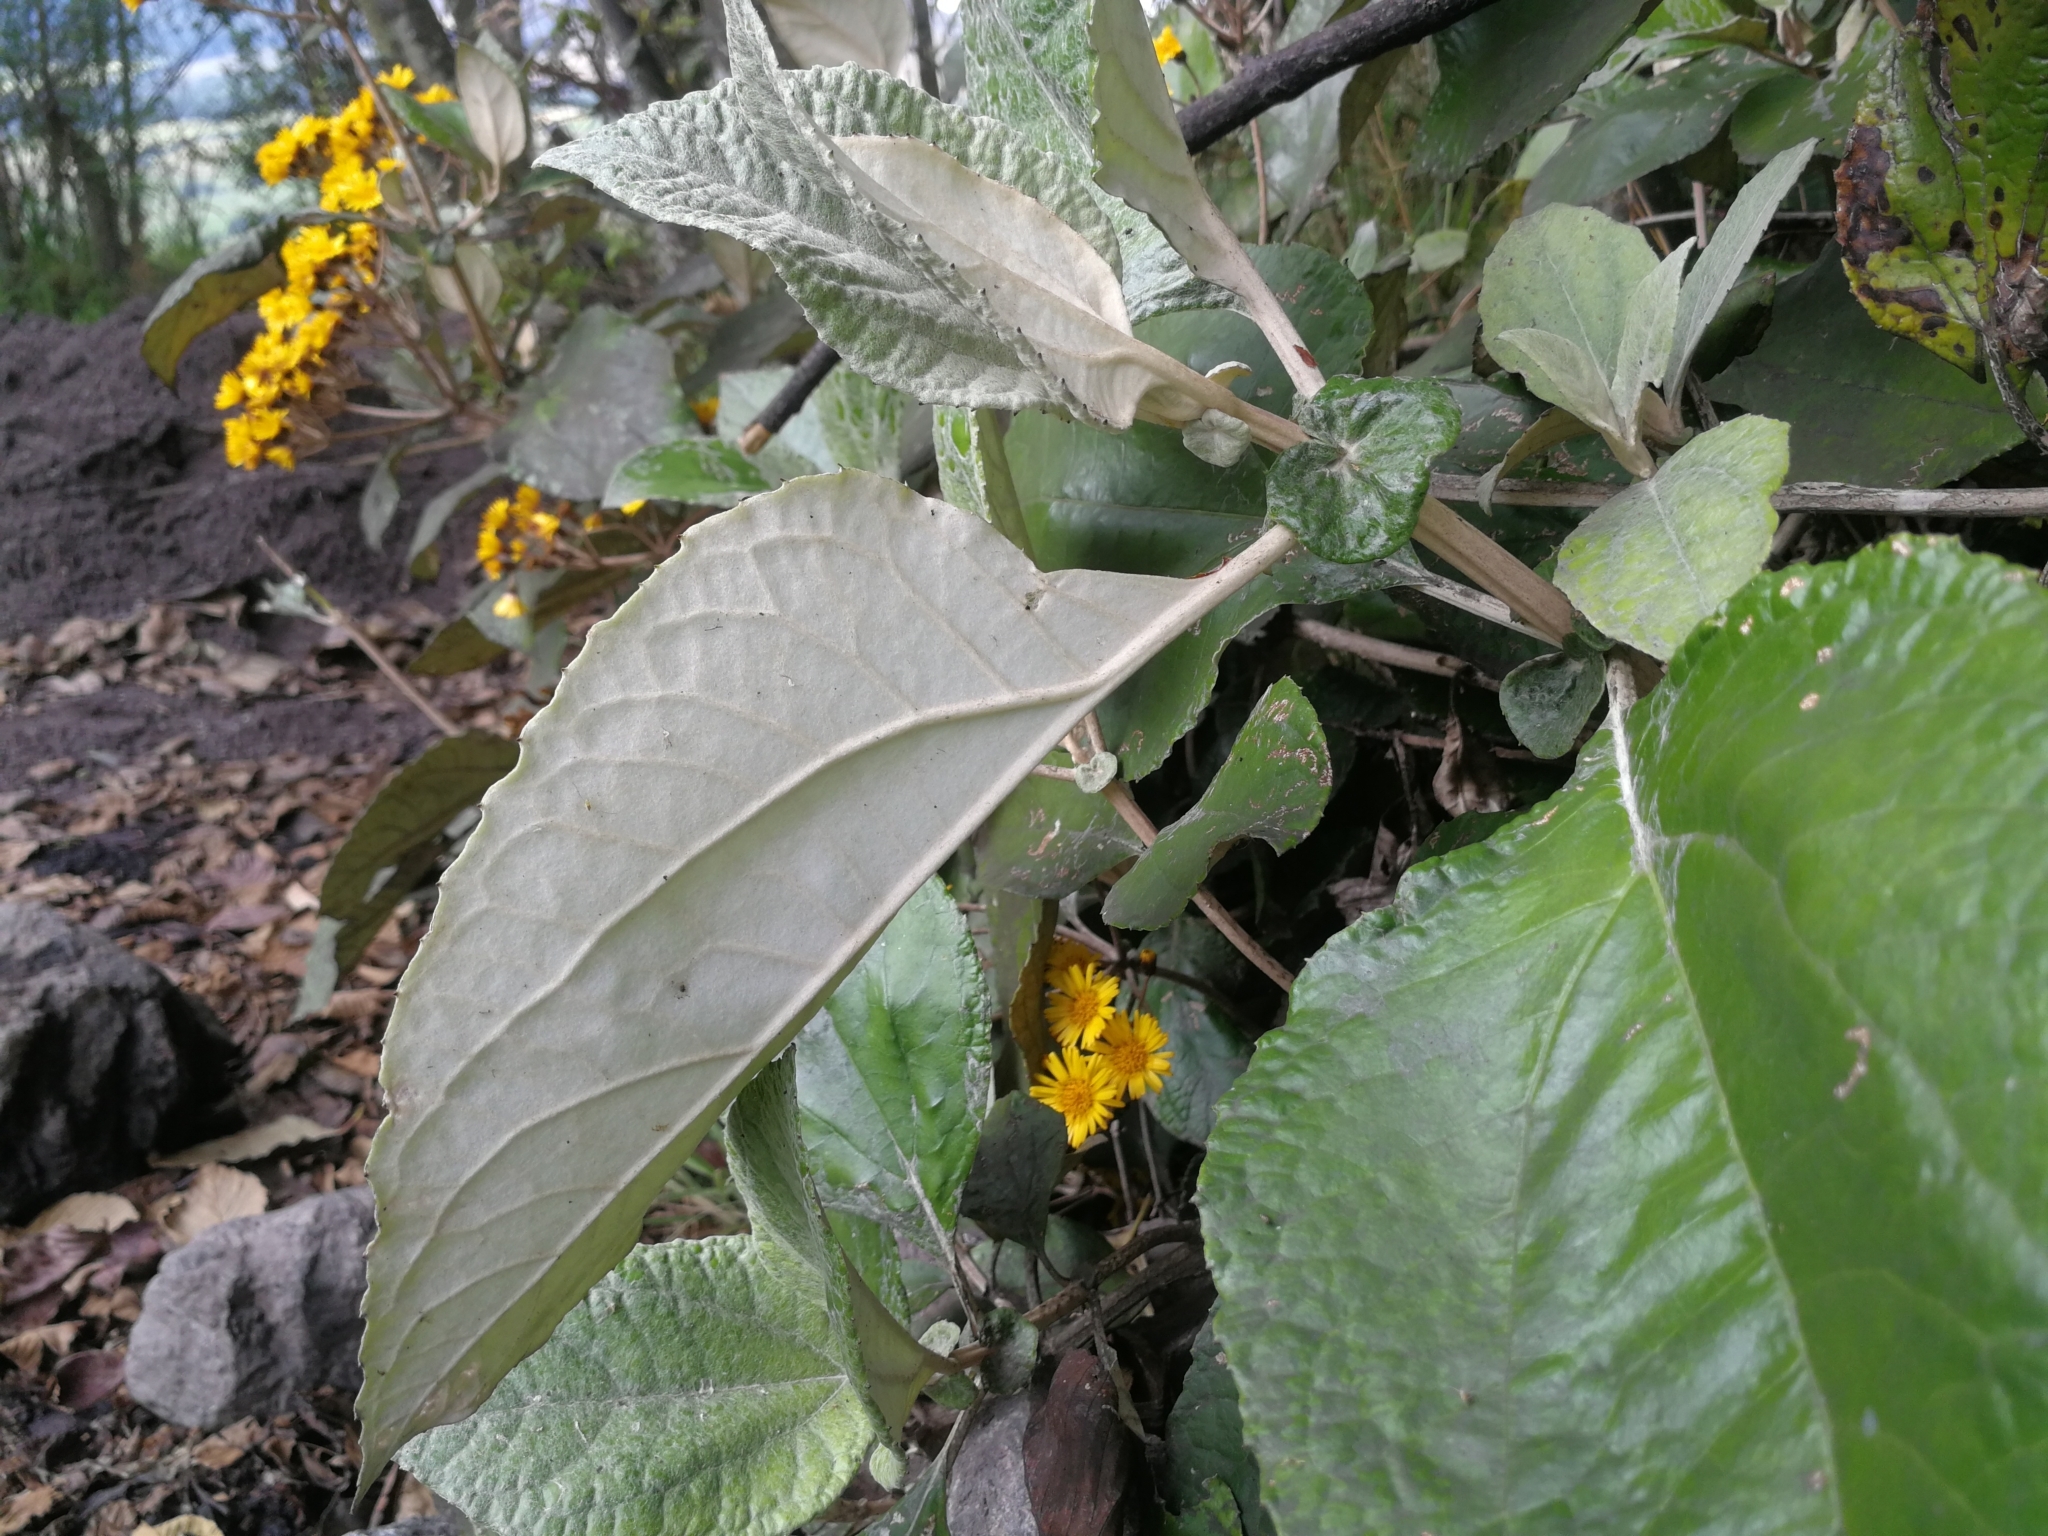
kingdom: Plantae
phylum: Tracheophyta
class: Magnoliopsida
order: Asterales
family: Asteraceae
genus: Liabum
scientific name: Liabum igniarium
